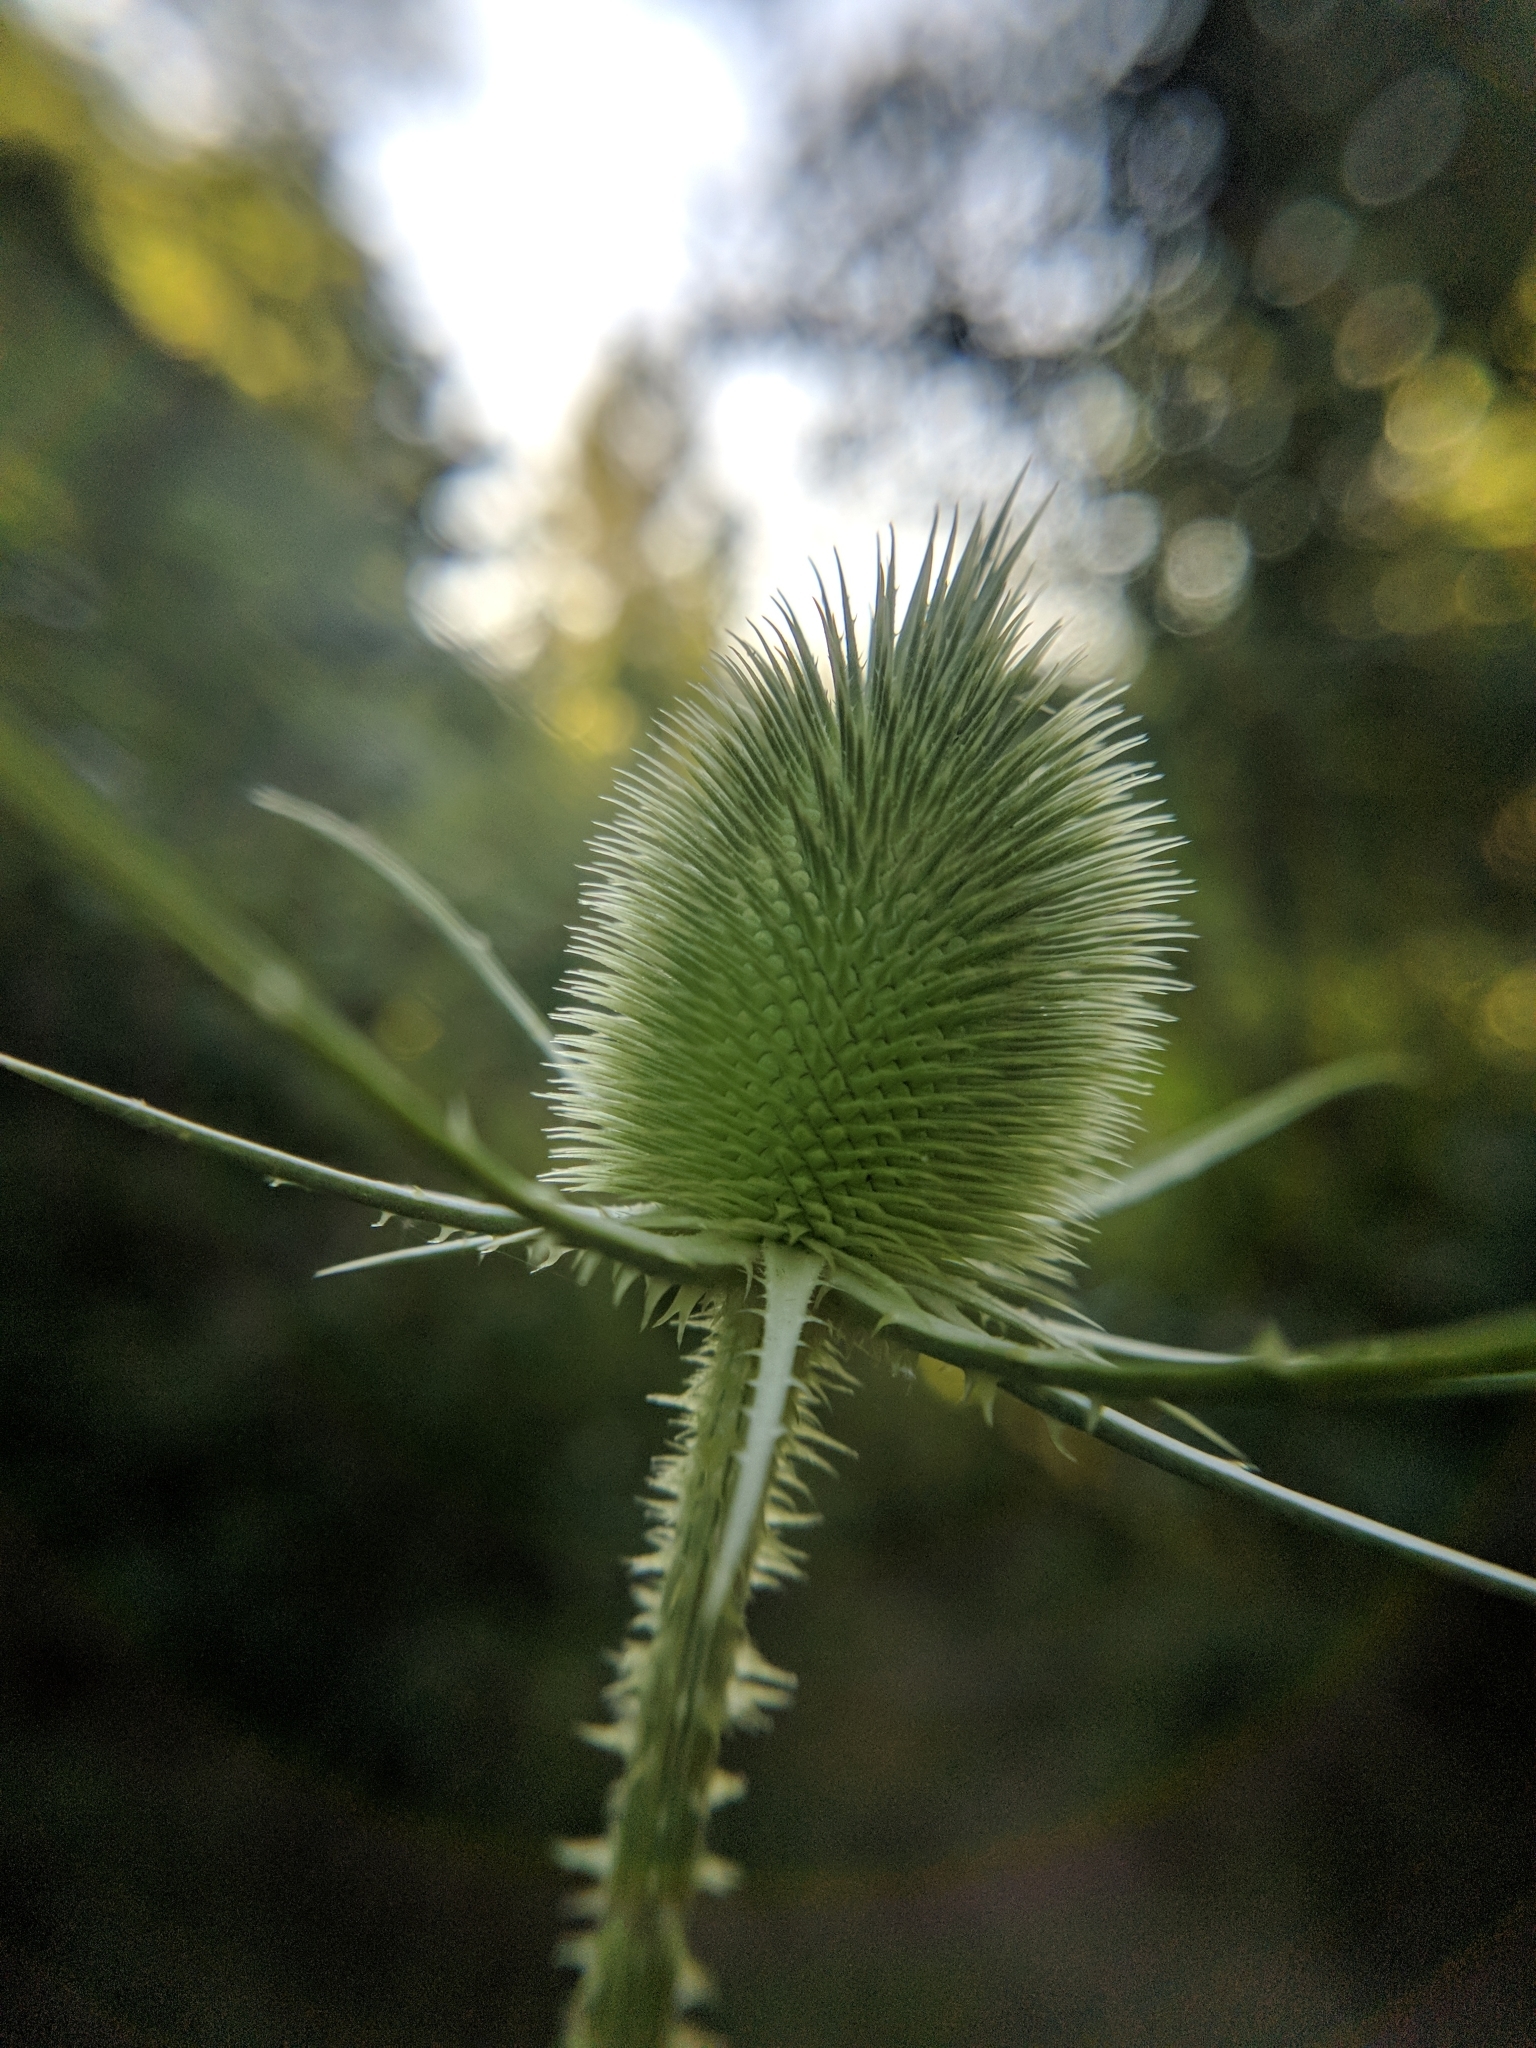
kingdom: Plantae
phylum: Tracheophyta
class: Magnoliopsida
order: Dipsacales
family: Caprifoliaceae
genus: Dipsacus
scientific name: Dipsacus fullonum
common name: Teasel
